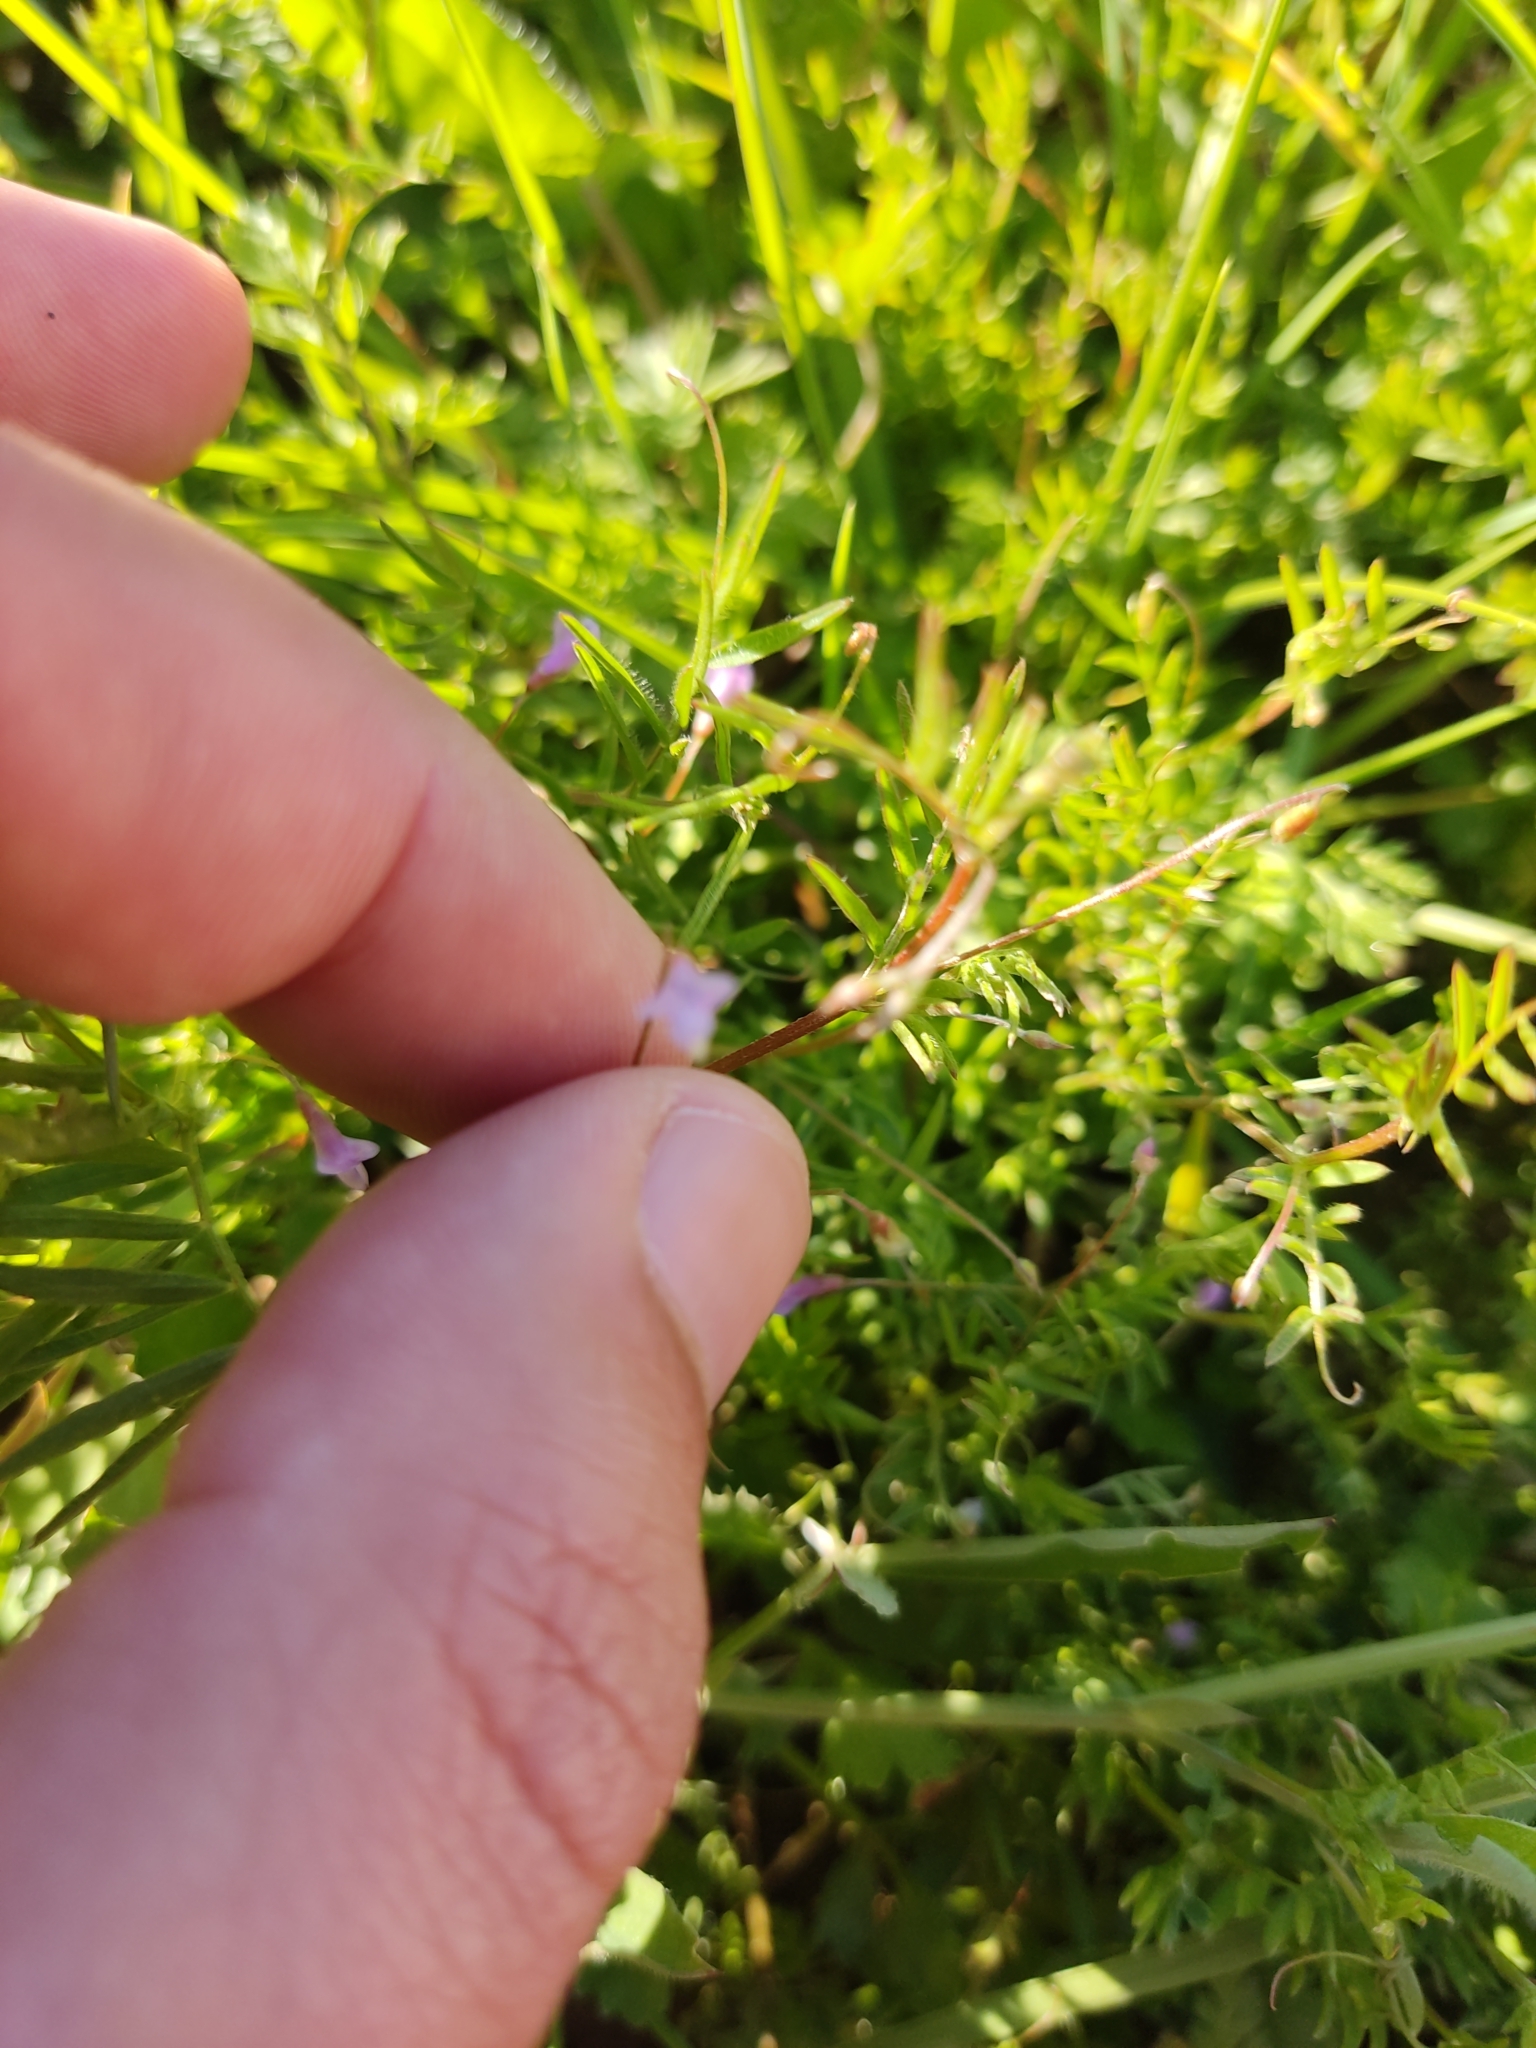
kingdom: Plantae
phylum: Tracheophyta
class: Magnoliopsida
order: Fabales
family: Fabaceae
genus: Vicia
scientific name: Vicia parviflora
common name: Slender tare
